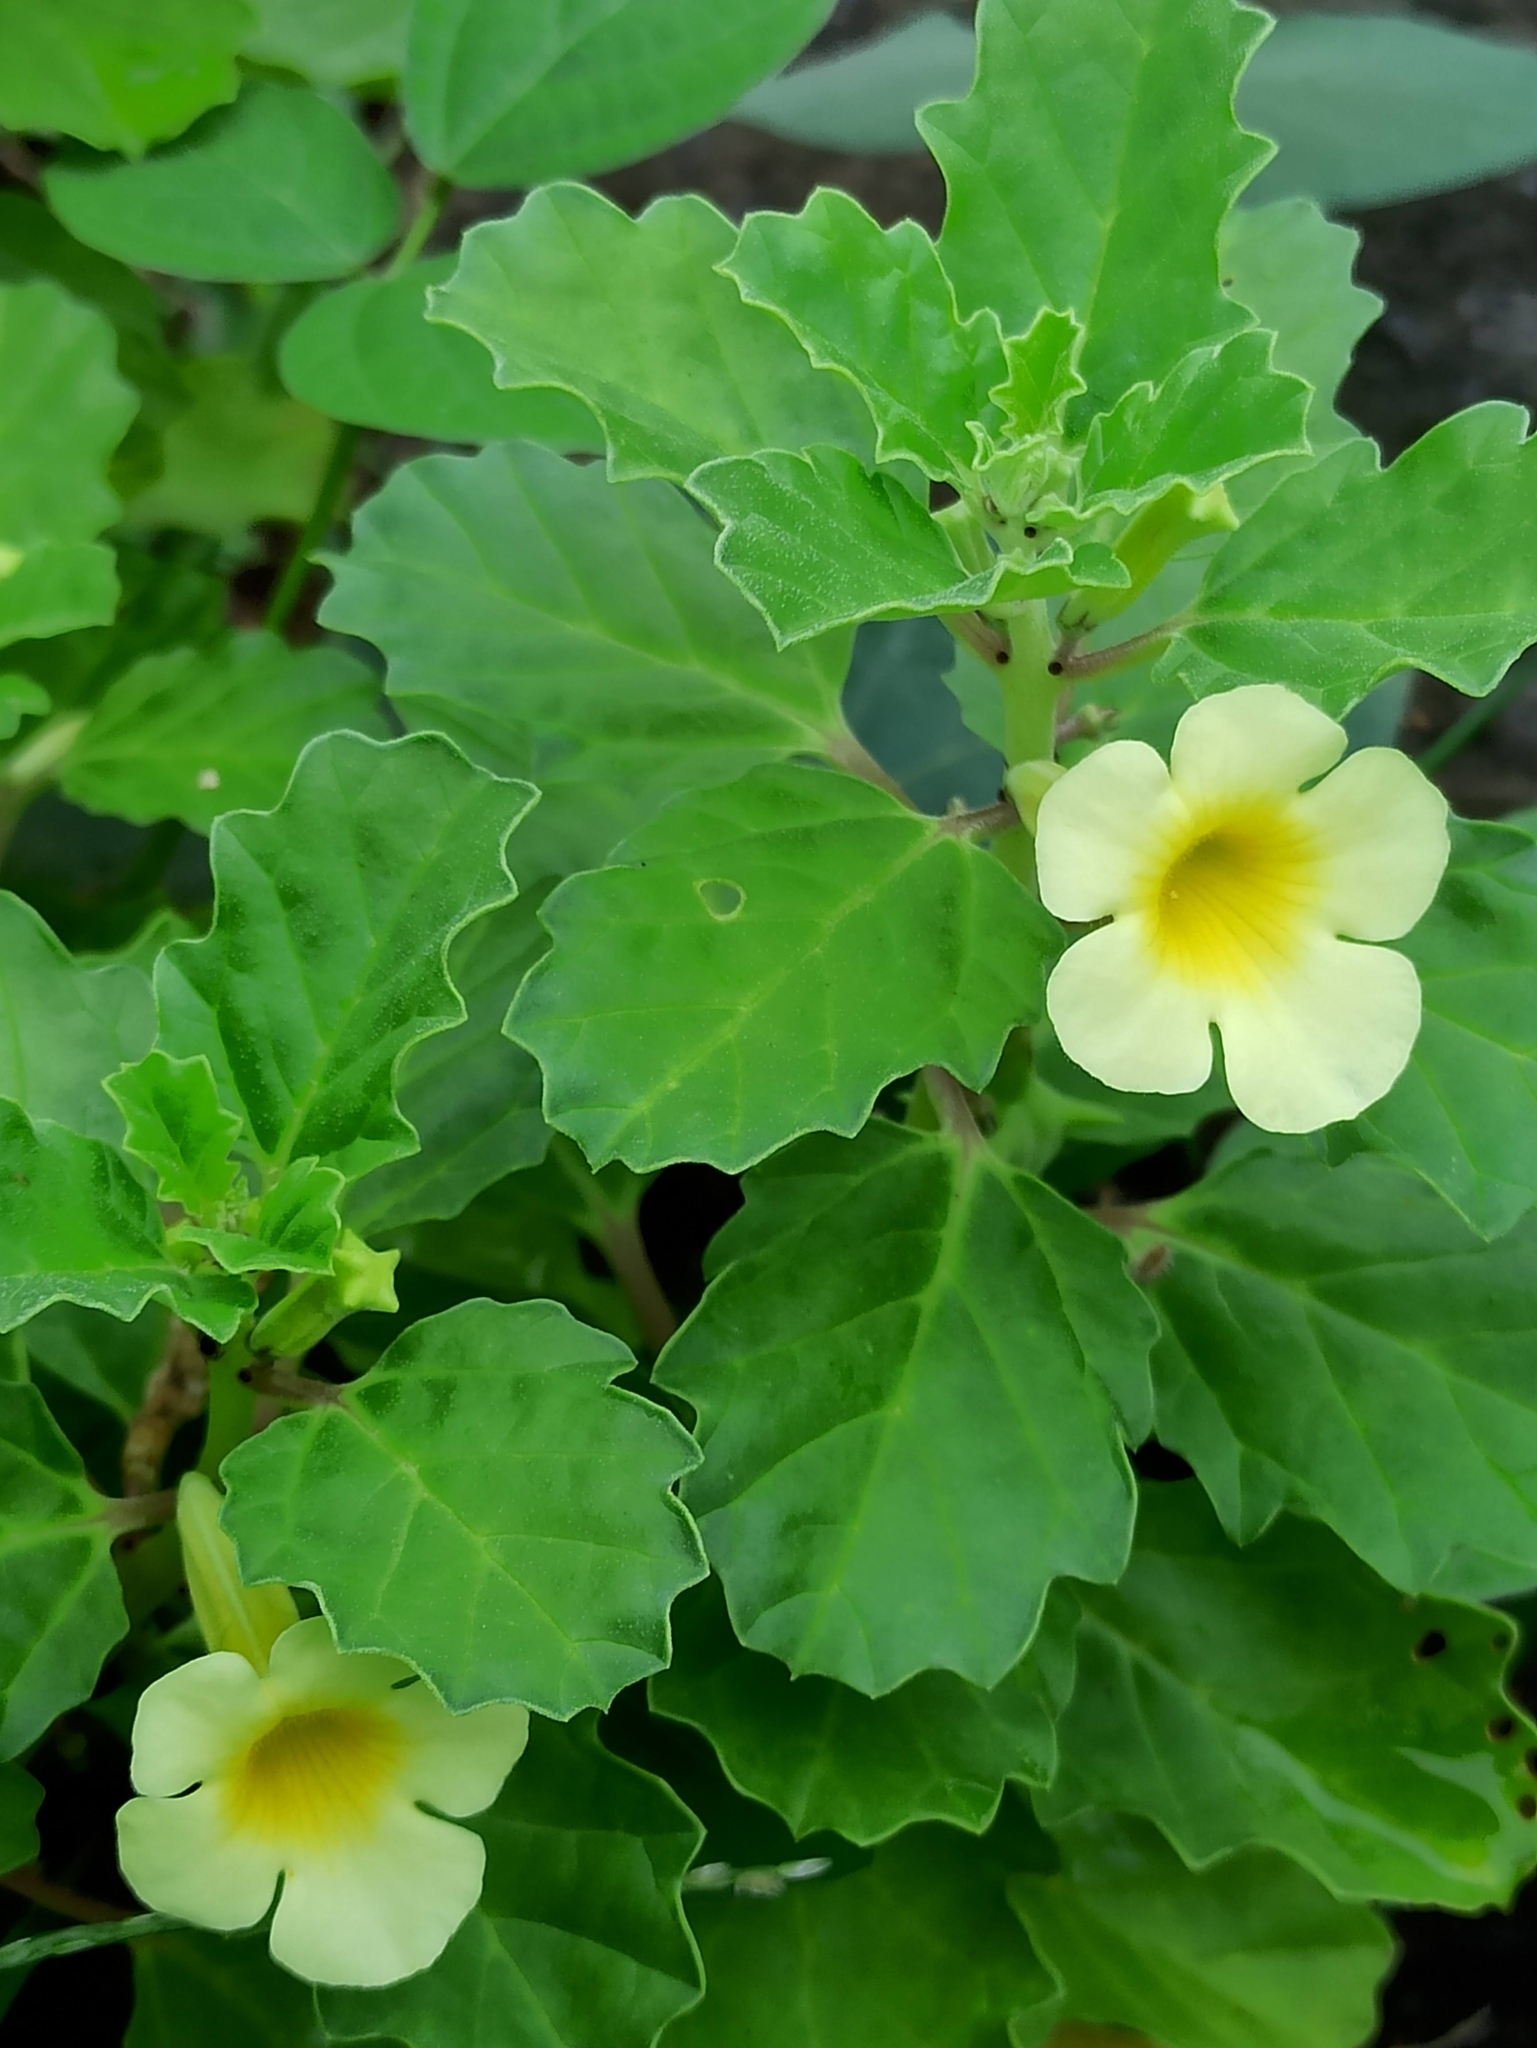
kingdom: Plantae
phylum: Tracheophyta
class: Magnoliopsida
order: Lamiales
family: Pedaliaceae
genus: Pedalium
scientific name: Pedalium murex
